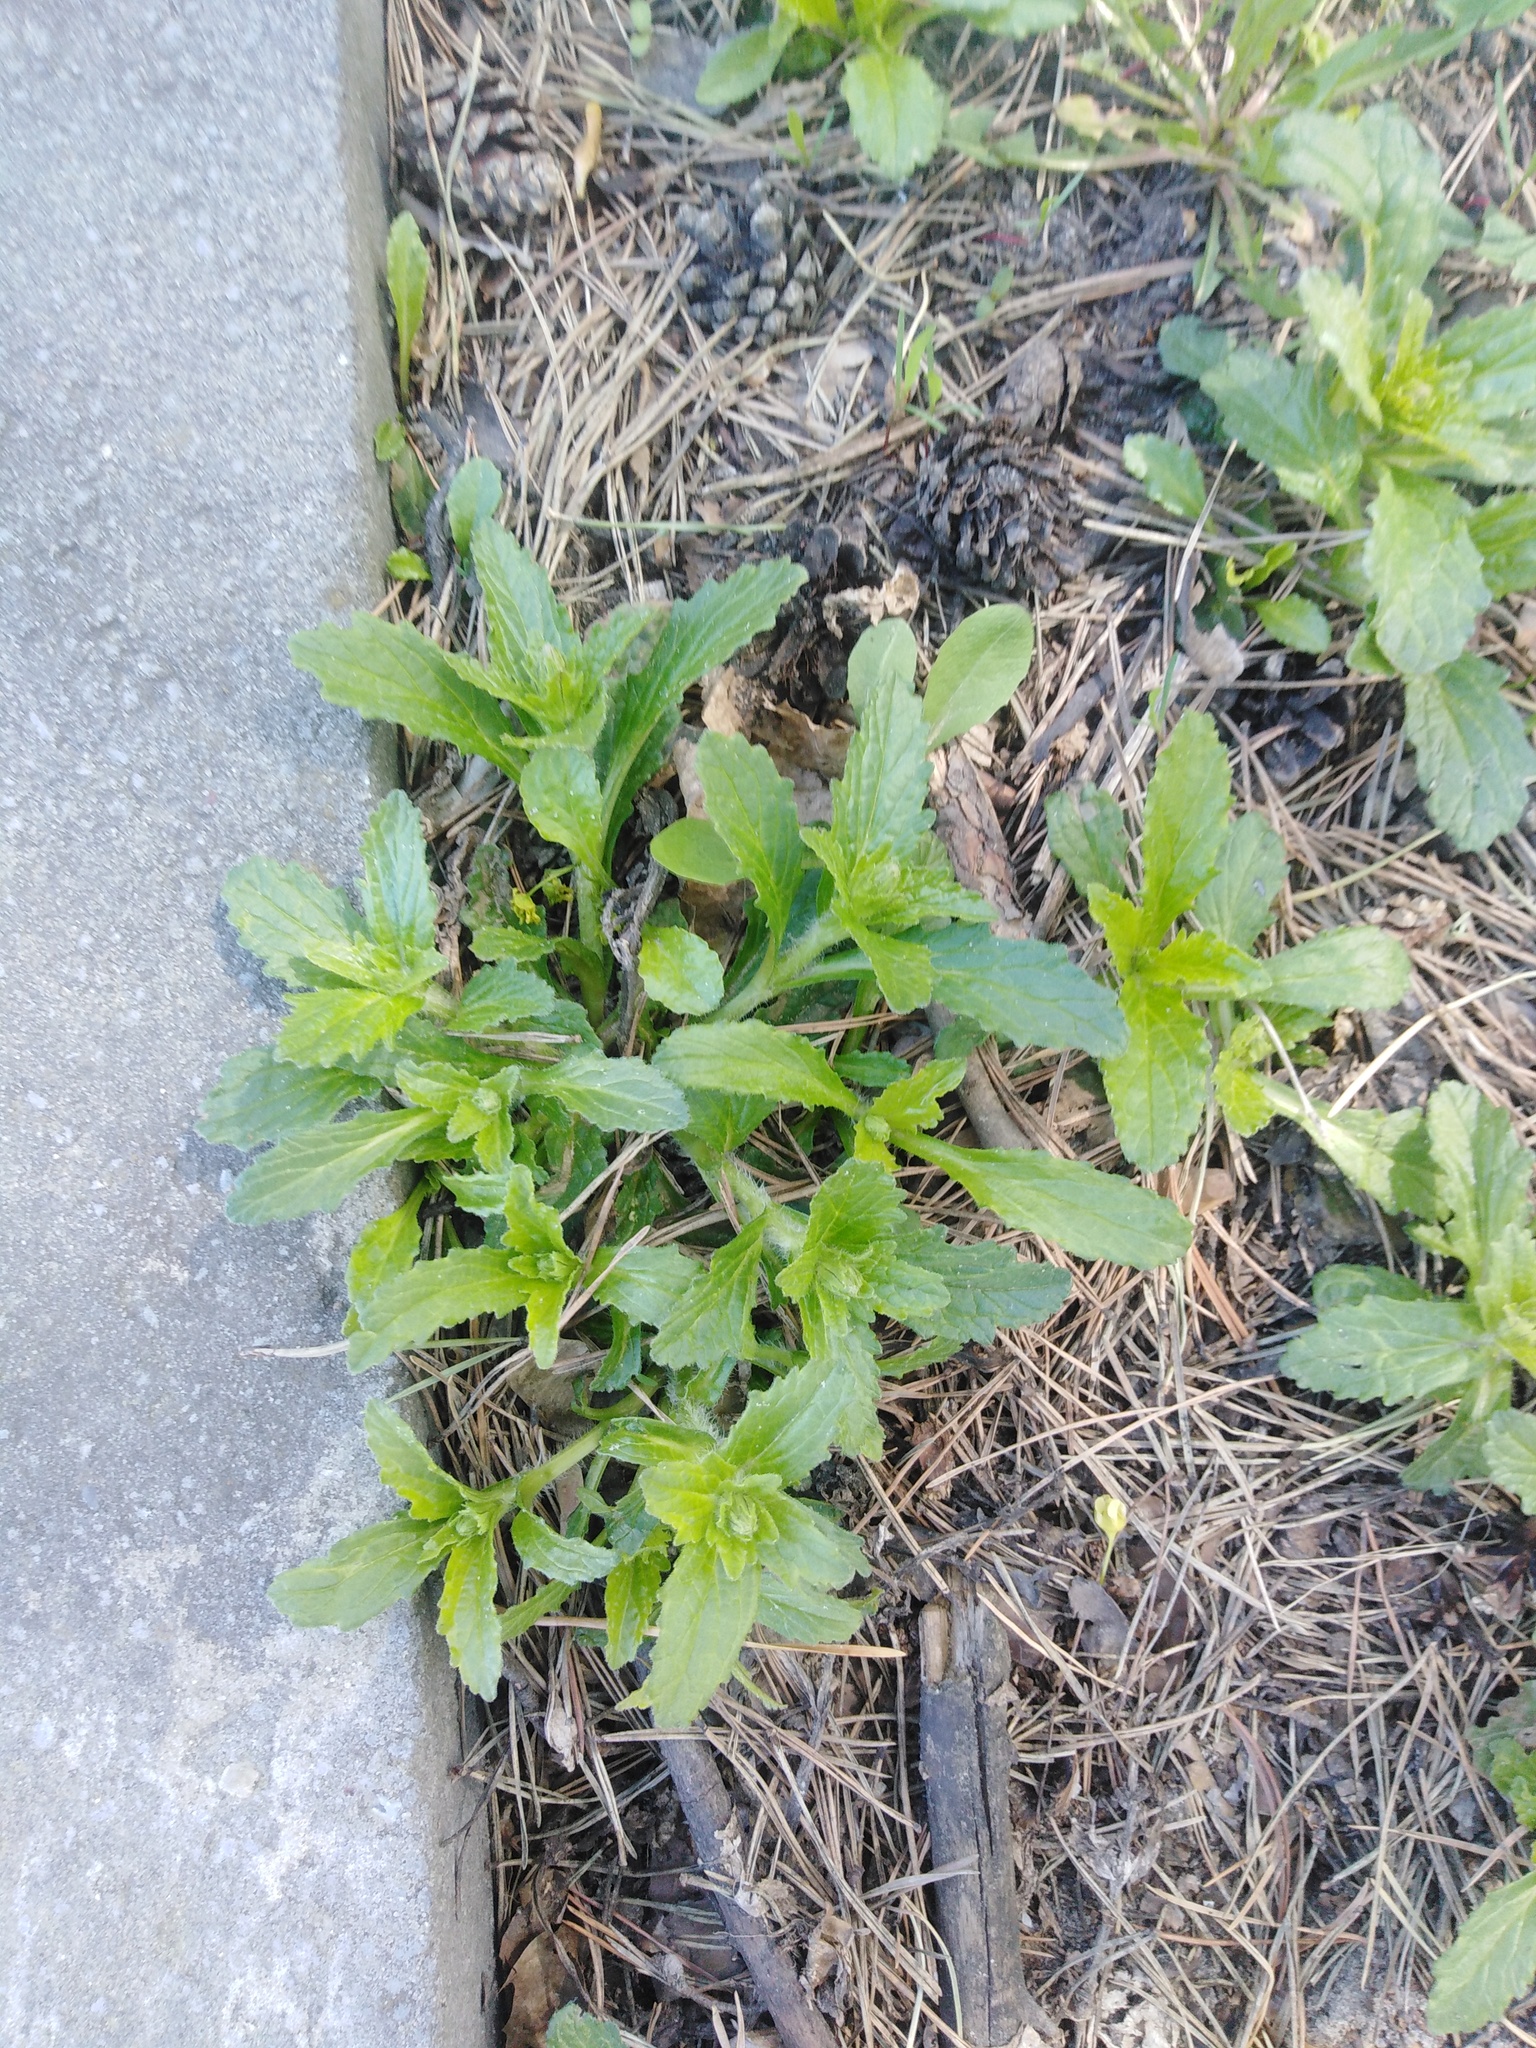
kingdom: Plantae
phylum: Tracheophyta
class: Magnoliopsida
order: Lamiales
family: Lamiaceae
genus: Ajuga
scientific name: Ajuga genevensis
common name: Blue bugle
